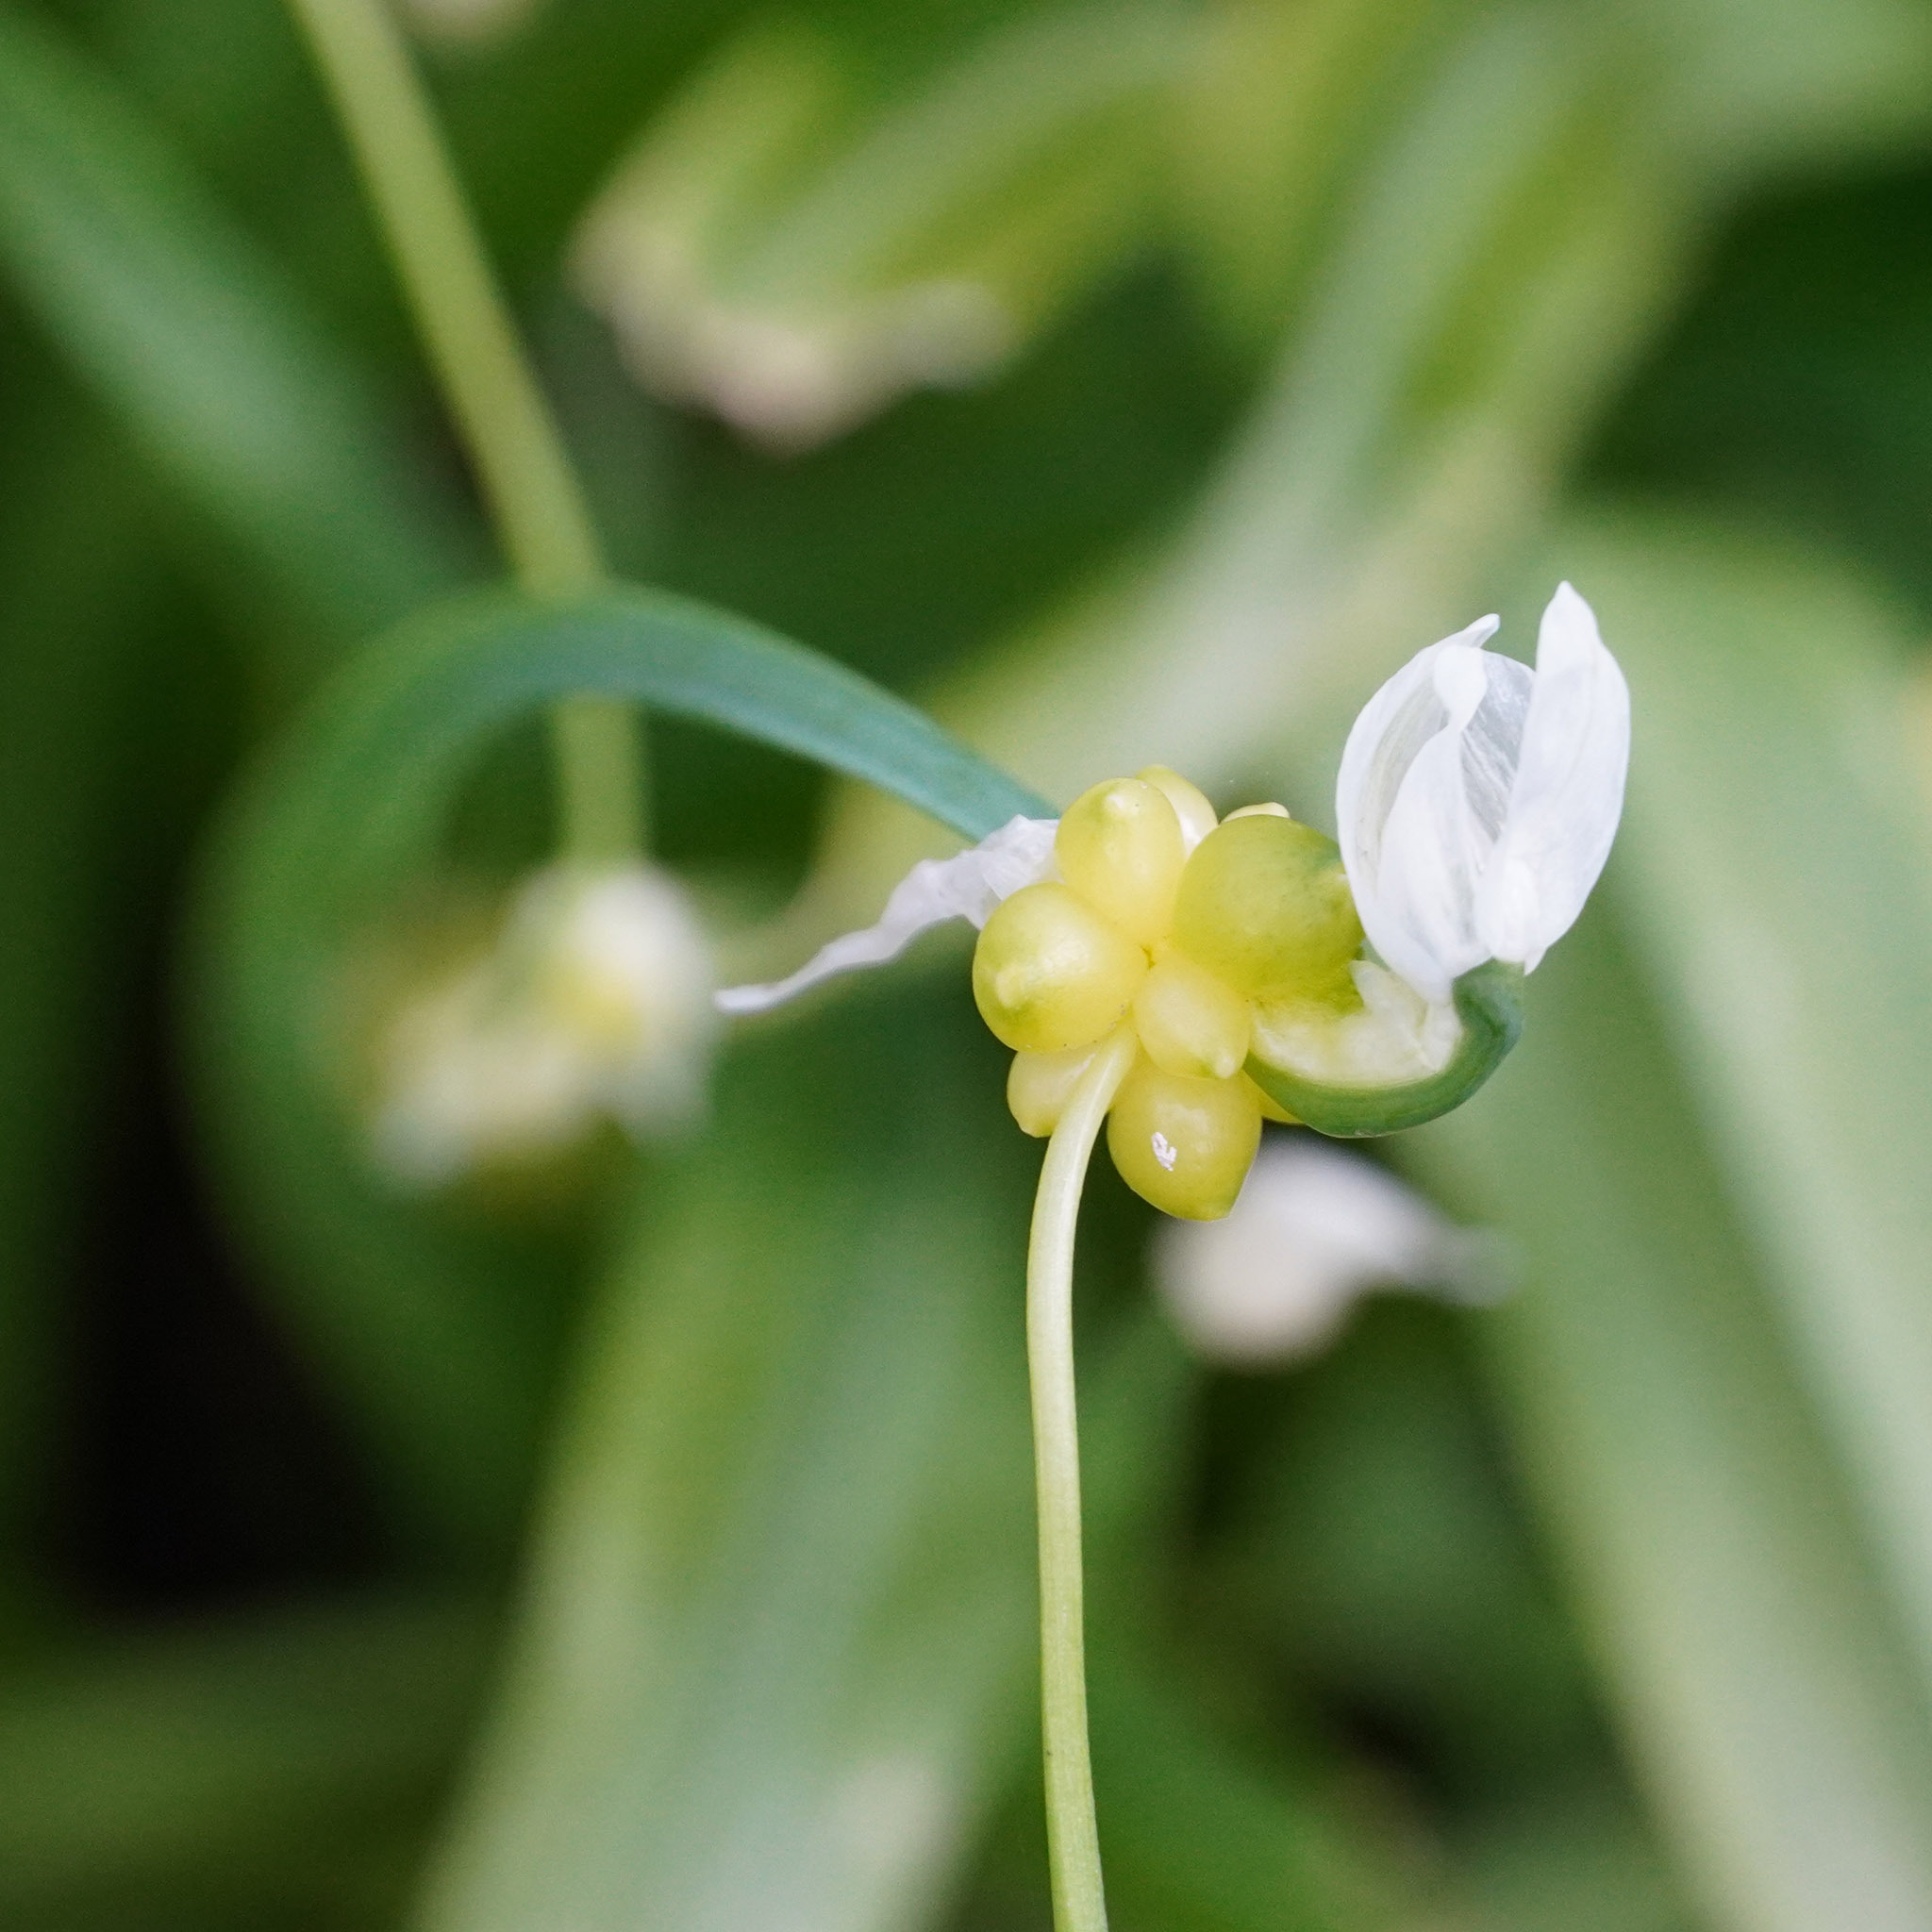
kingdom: Plantae
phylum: Tracheophyta
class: Liliopsida
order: Asparagales
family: Amaryllidaceae
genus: Allium
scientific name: Allium paradoxum
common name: Few-flowered garlic
